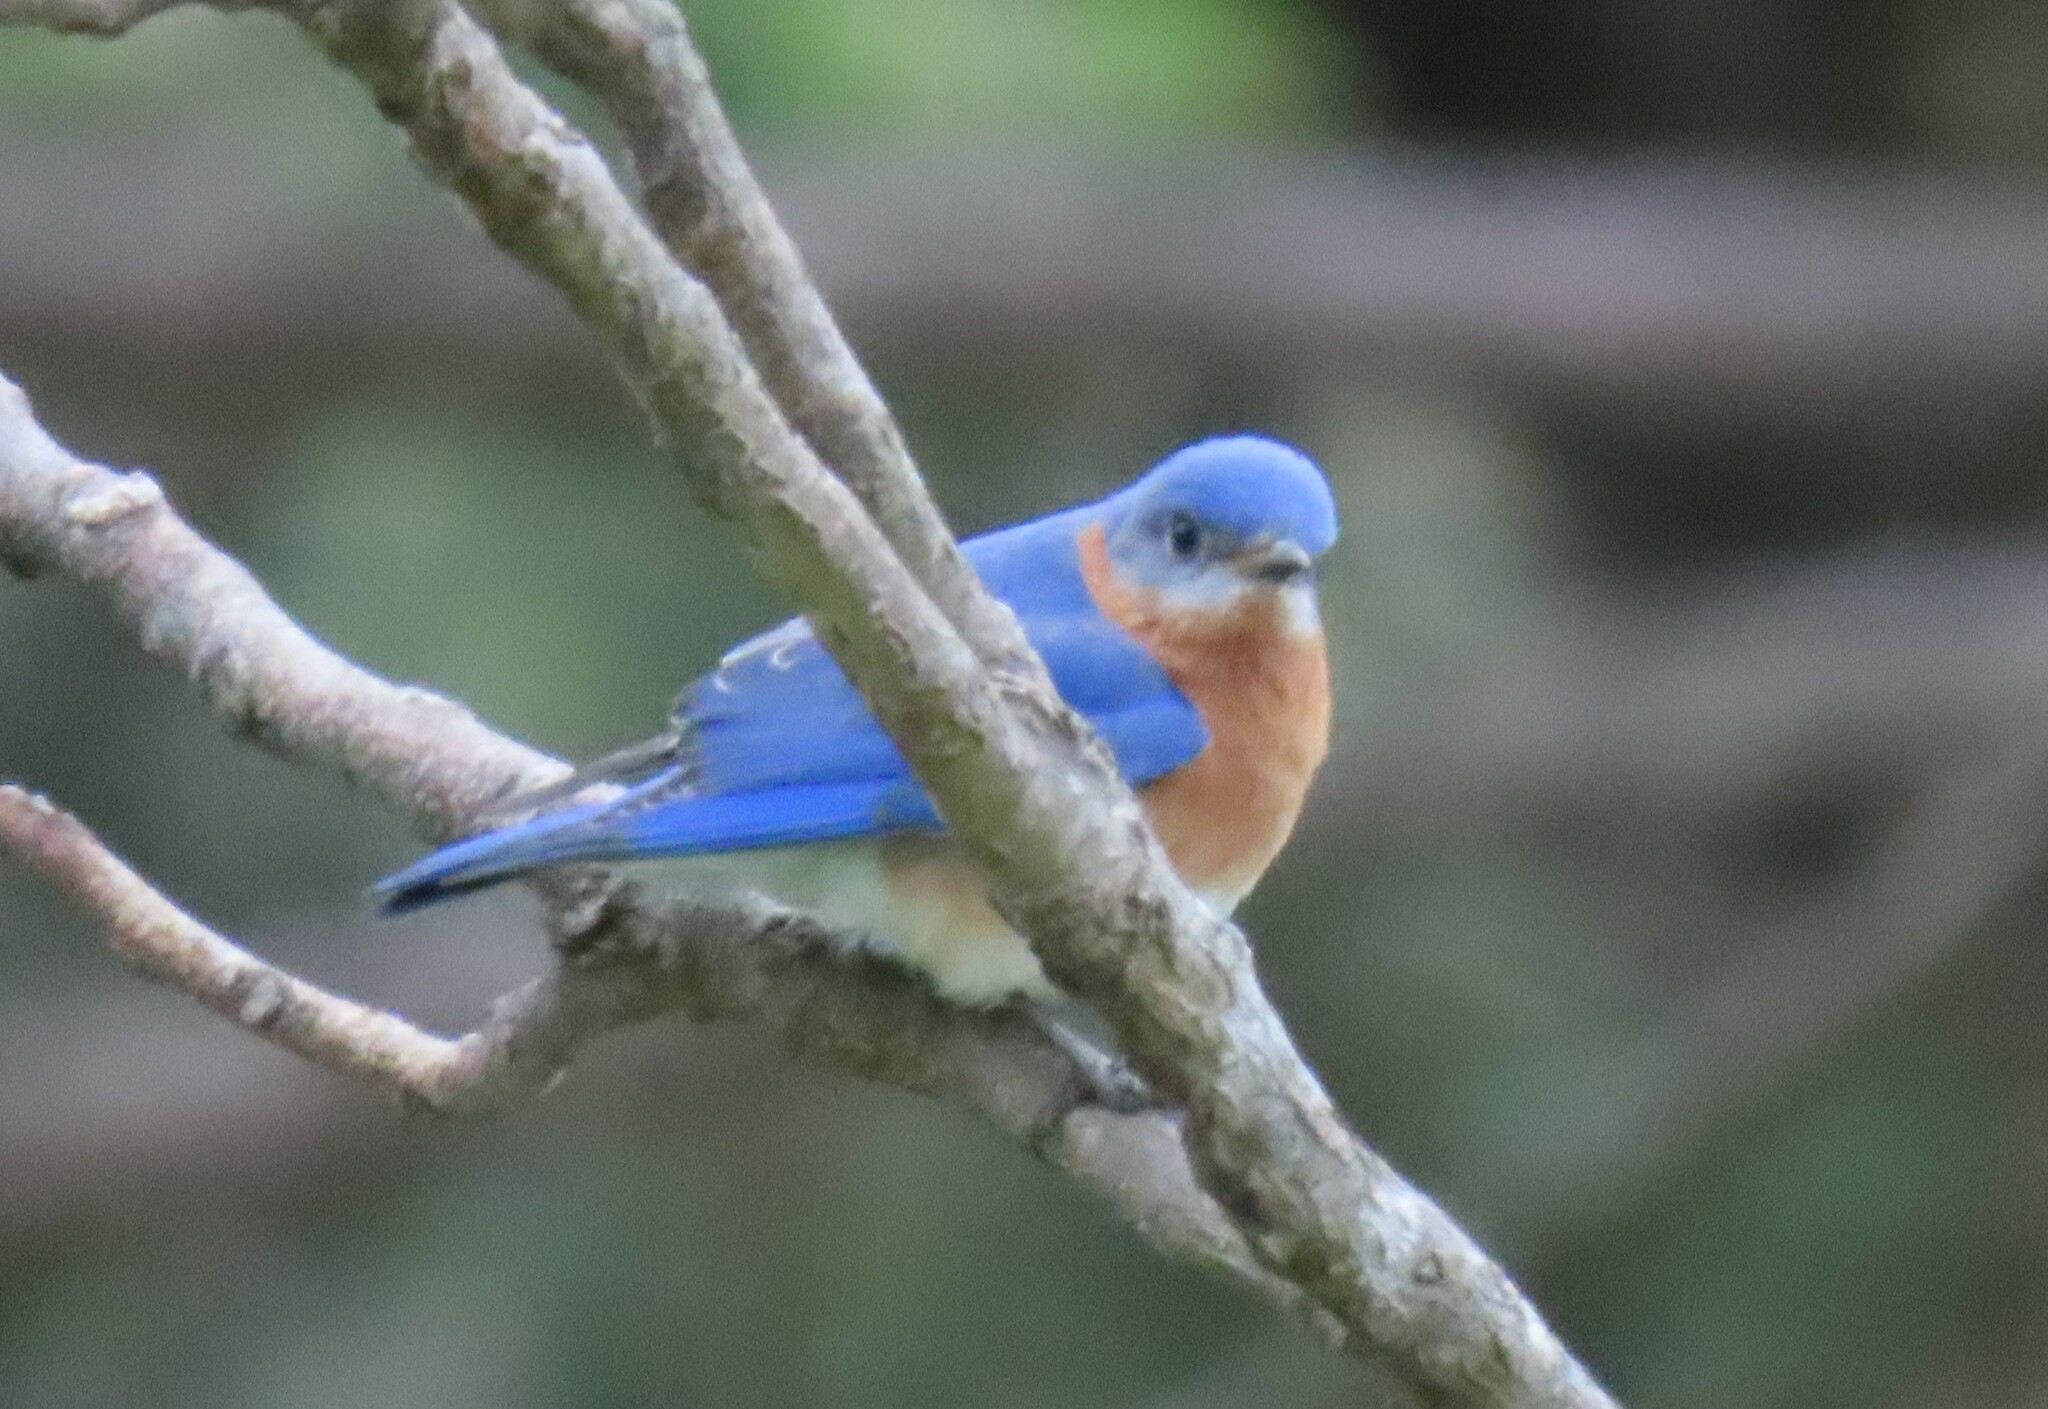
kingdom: Animalia
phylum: Chordata
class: Aves
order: Passeriformes
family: Turdidae
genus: Sialia
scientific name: Sialia sialis
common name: Eastern bluebird
